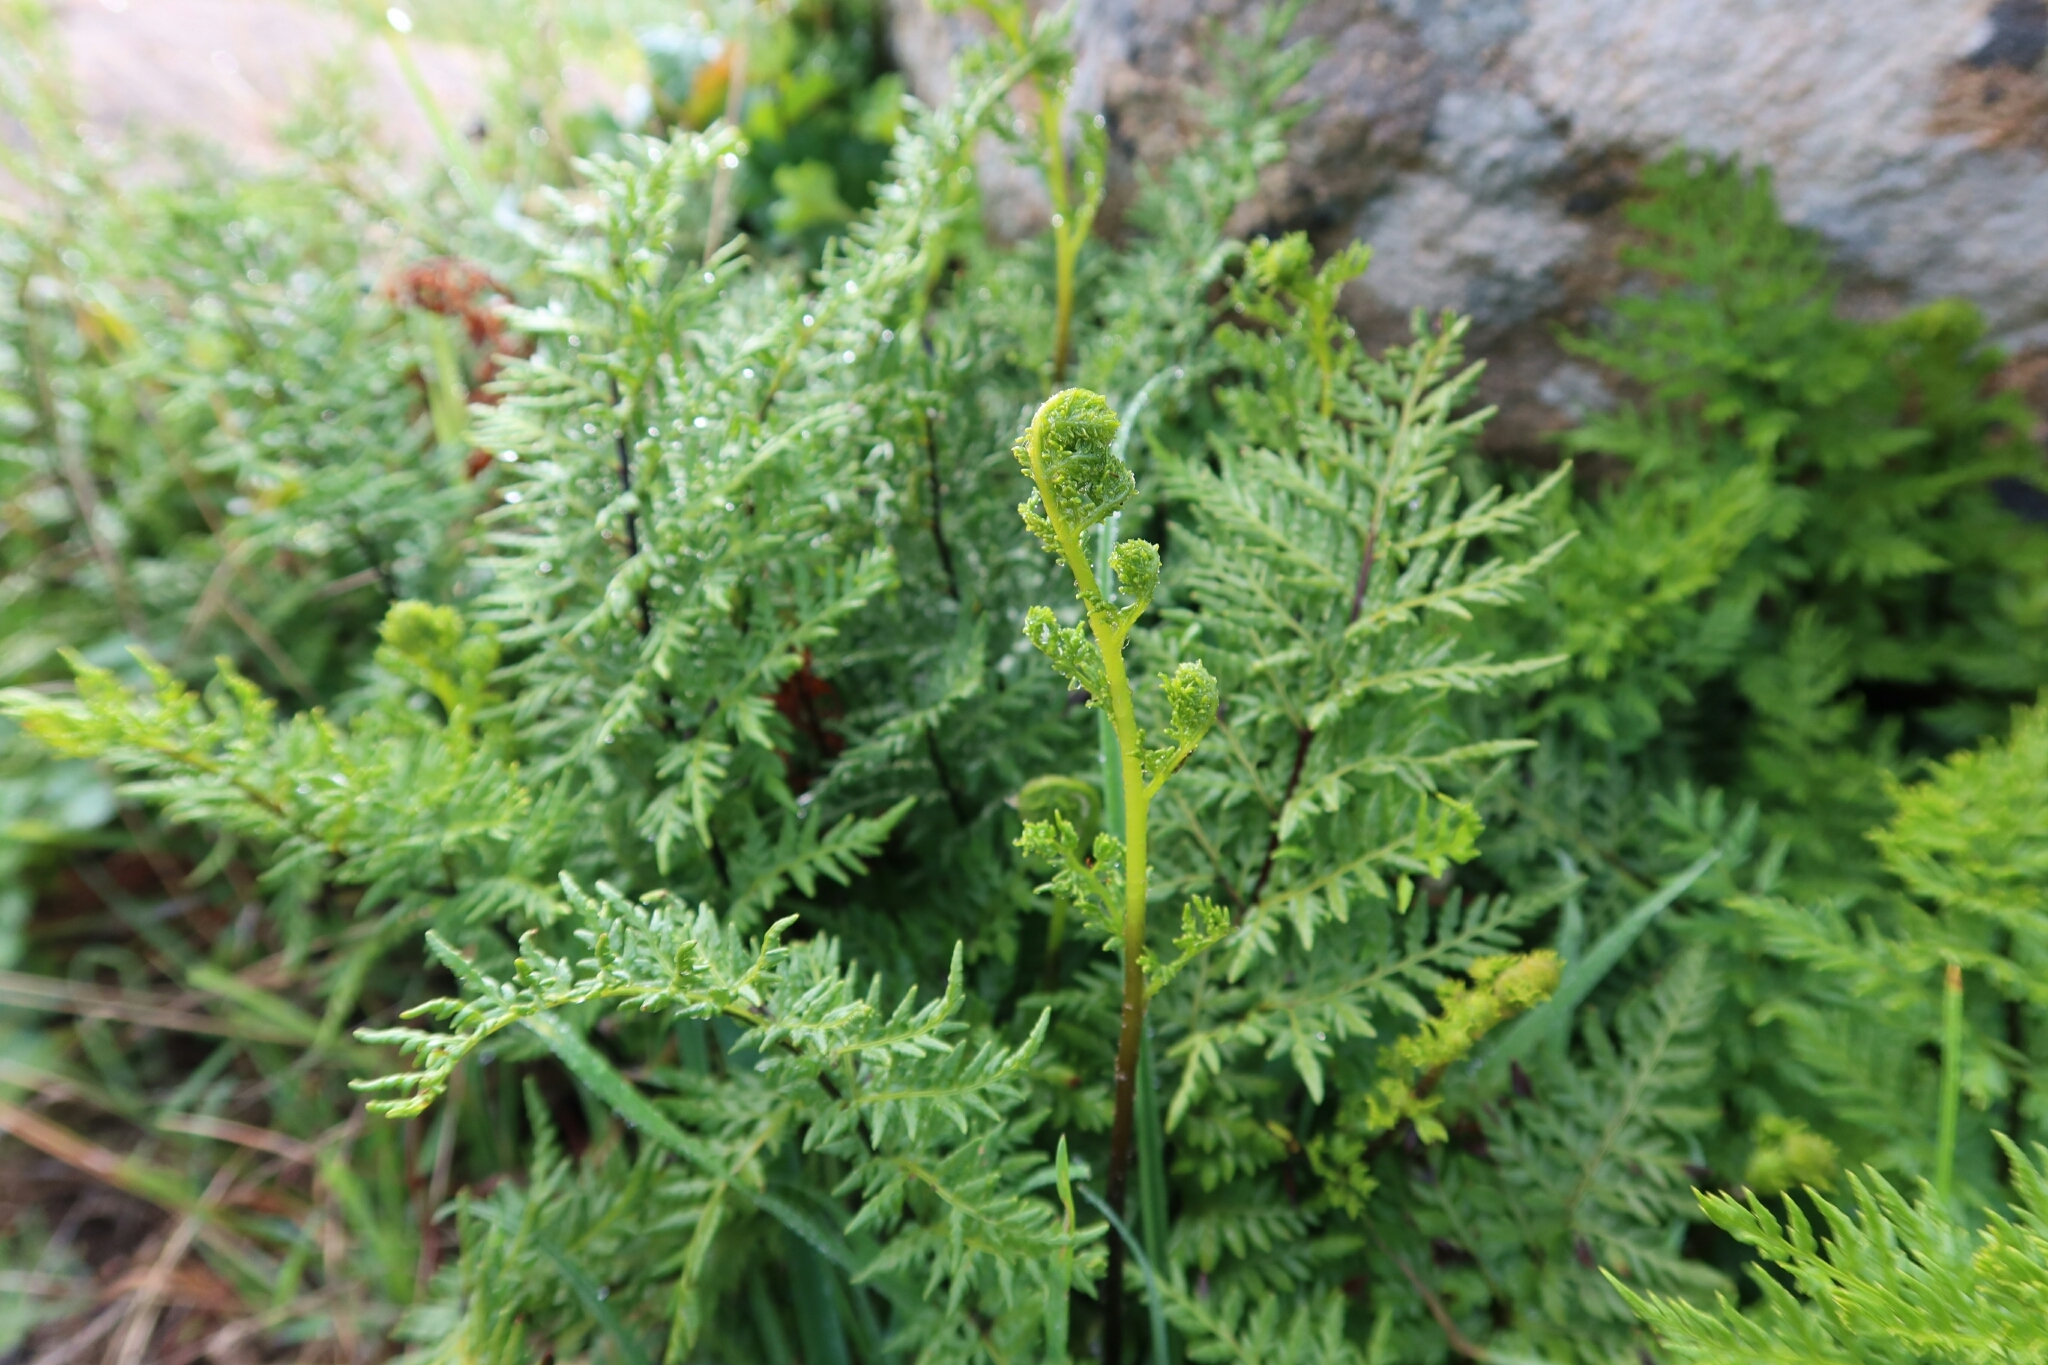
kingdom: Plantae
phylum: Tracheophyta
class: Polypodiopsida
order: Polypodiales
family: Pteridaceae
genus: Cheilanthes
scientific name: Cheilanthes austrotenuifolia
